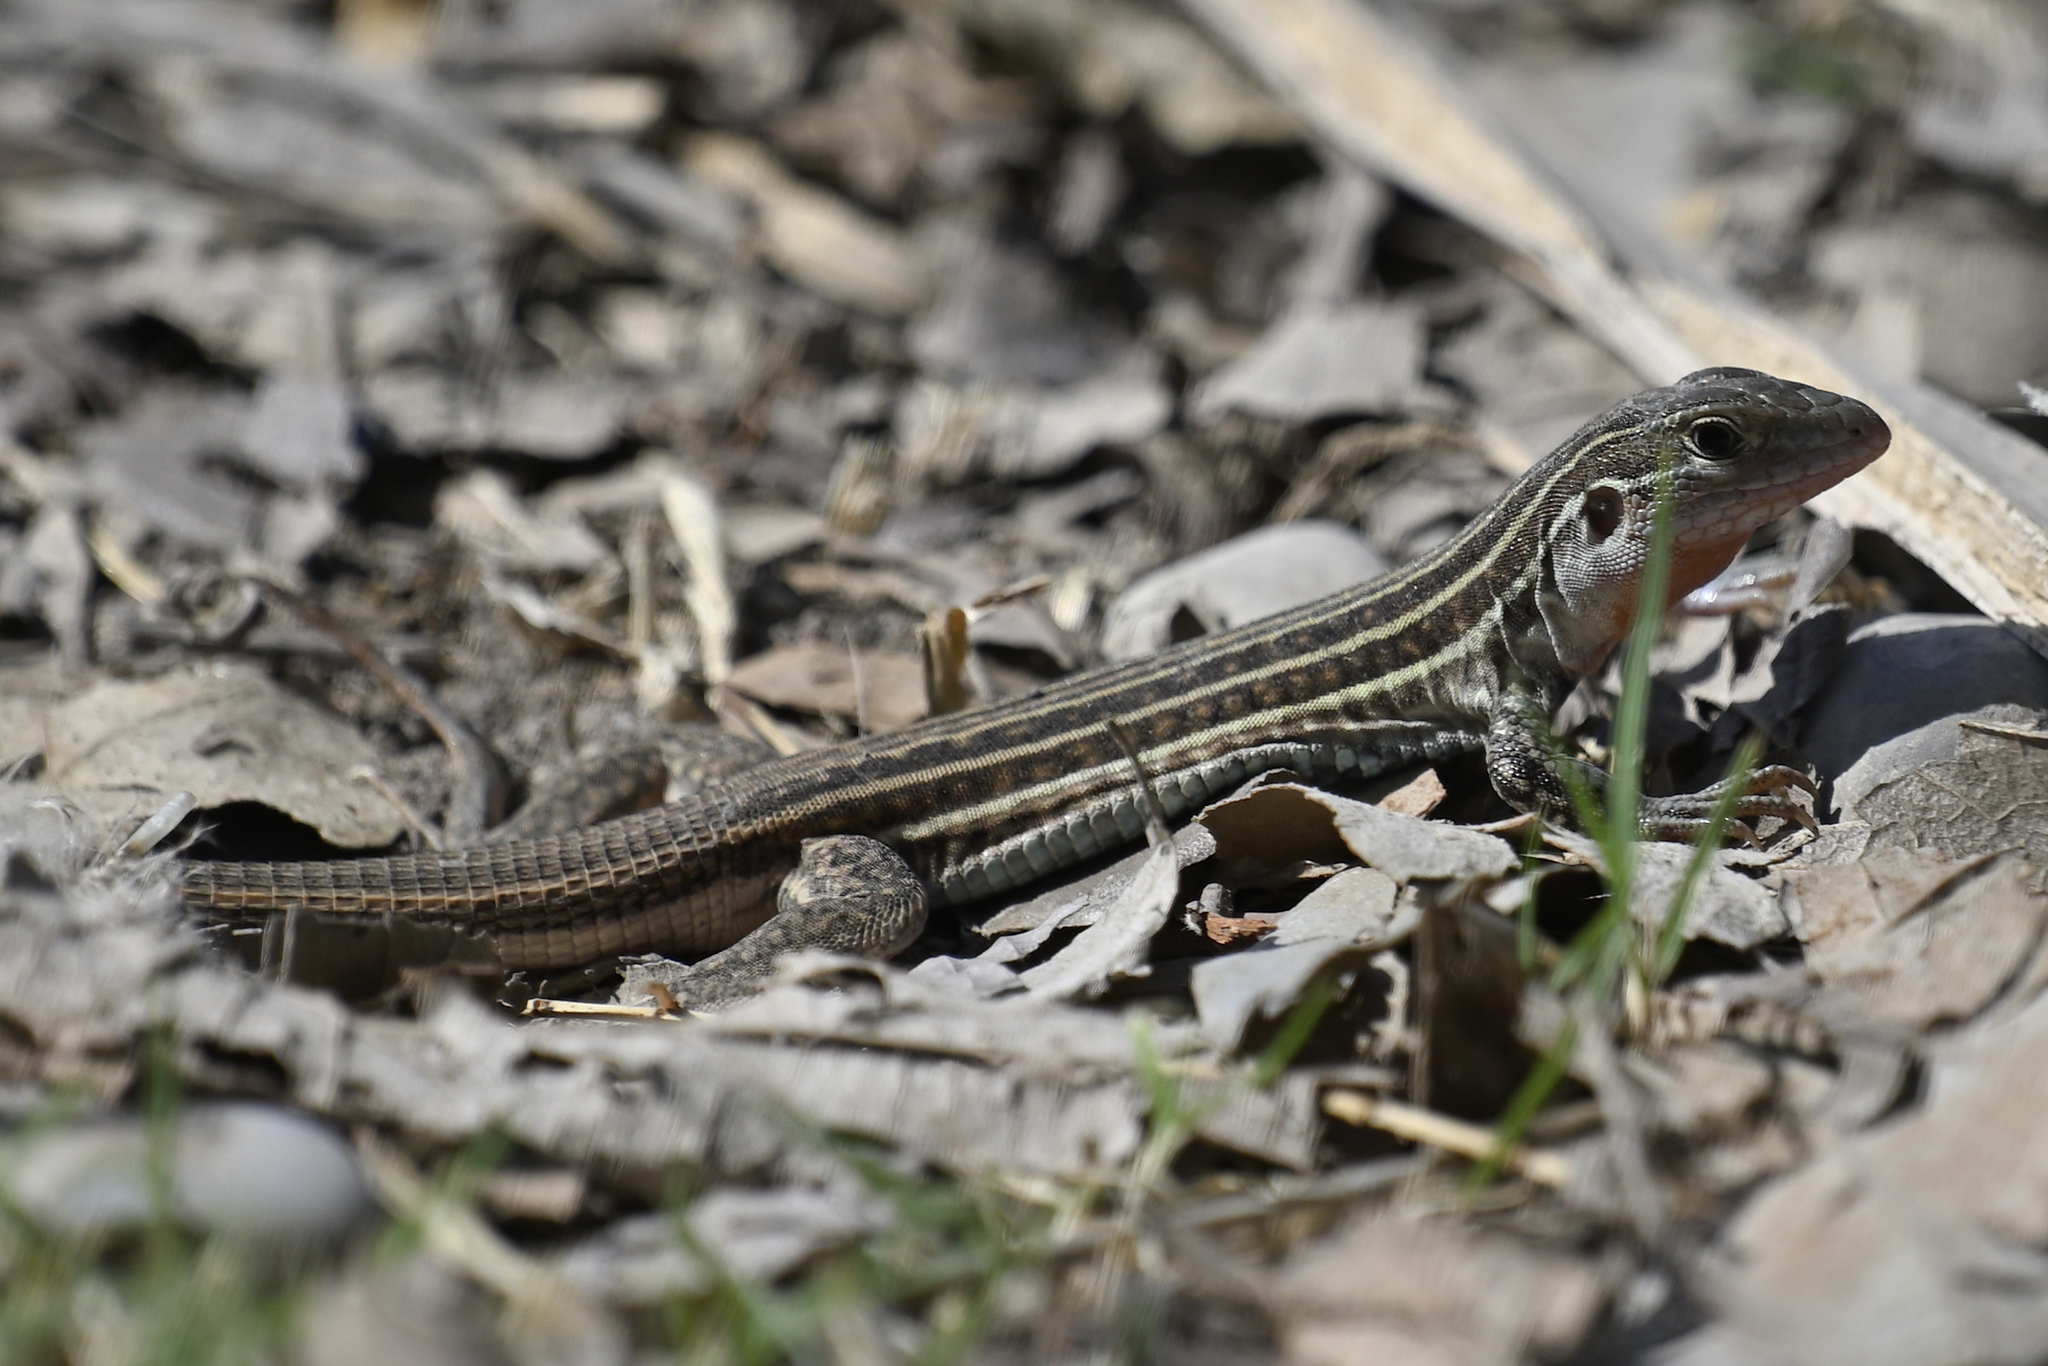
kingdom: Animalia
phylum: Chordata
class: Squamata
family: Teiidae
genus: Aspidoscelis
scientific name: Aspidoscelis gularis
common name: Eastern spotted whiptail
